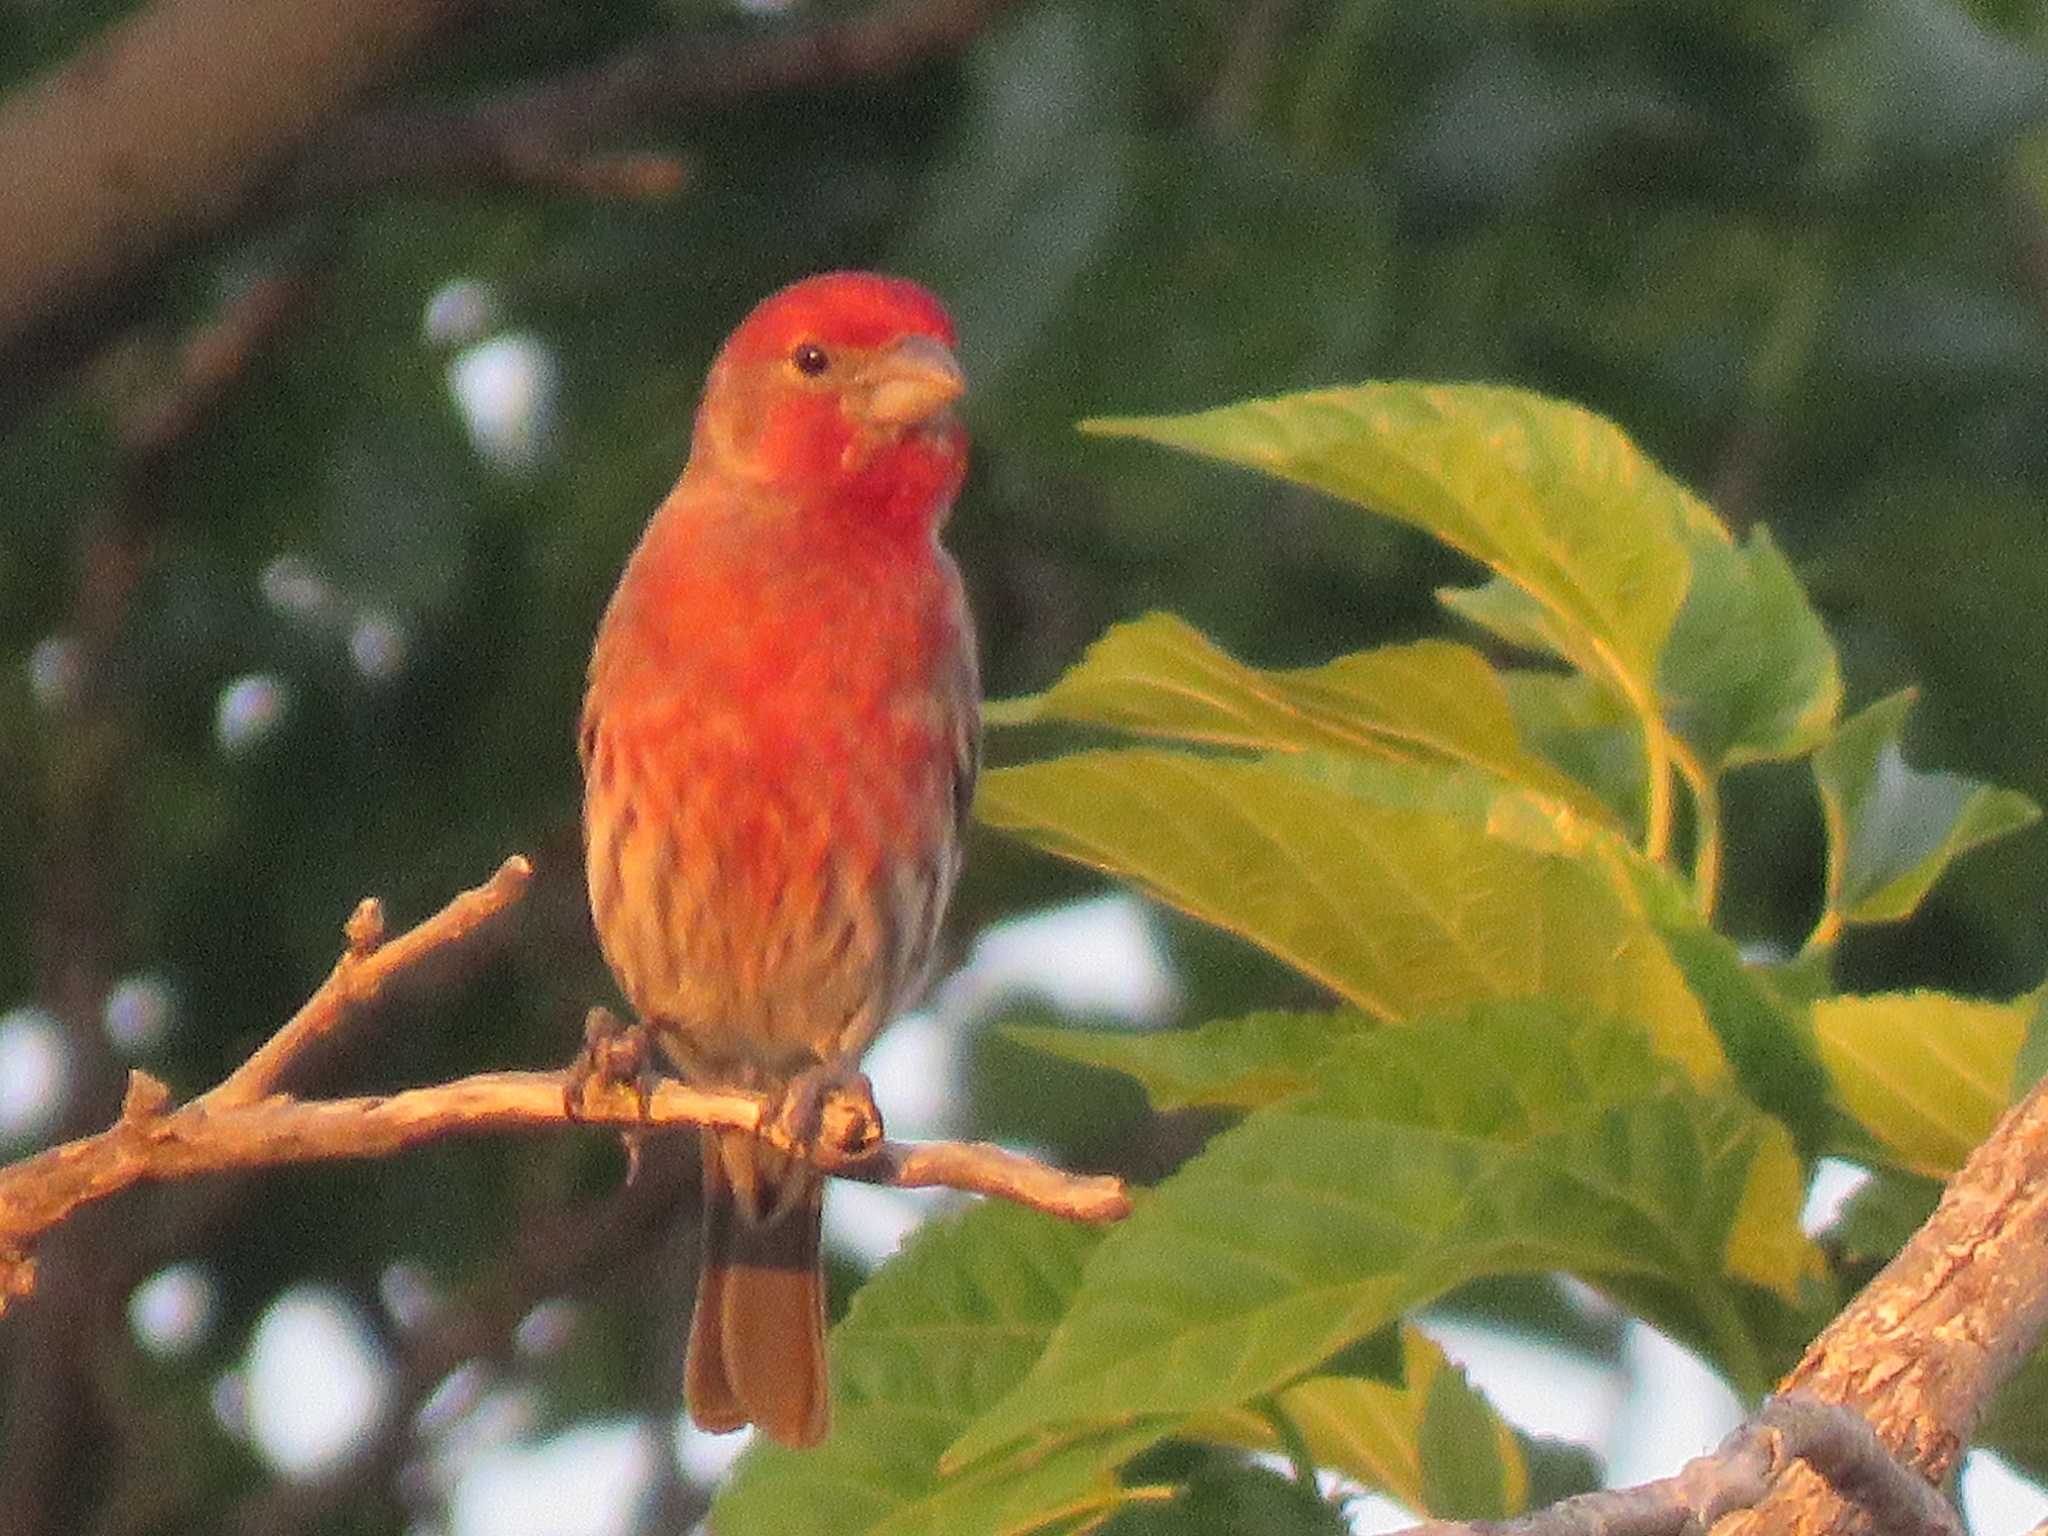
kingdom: Animalia
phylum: Chordata
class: Aves
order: Passeriformes
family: Fringillidae
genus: Haemorhous
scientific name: Haemorhous mexicanus
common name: House finch
